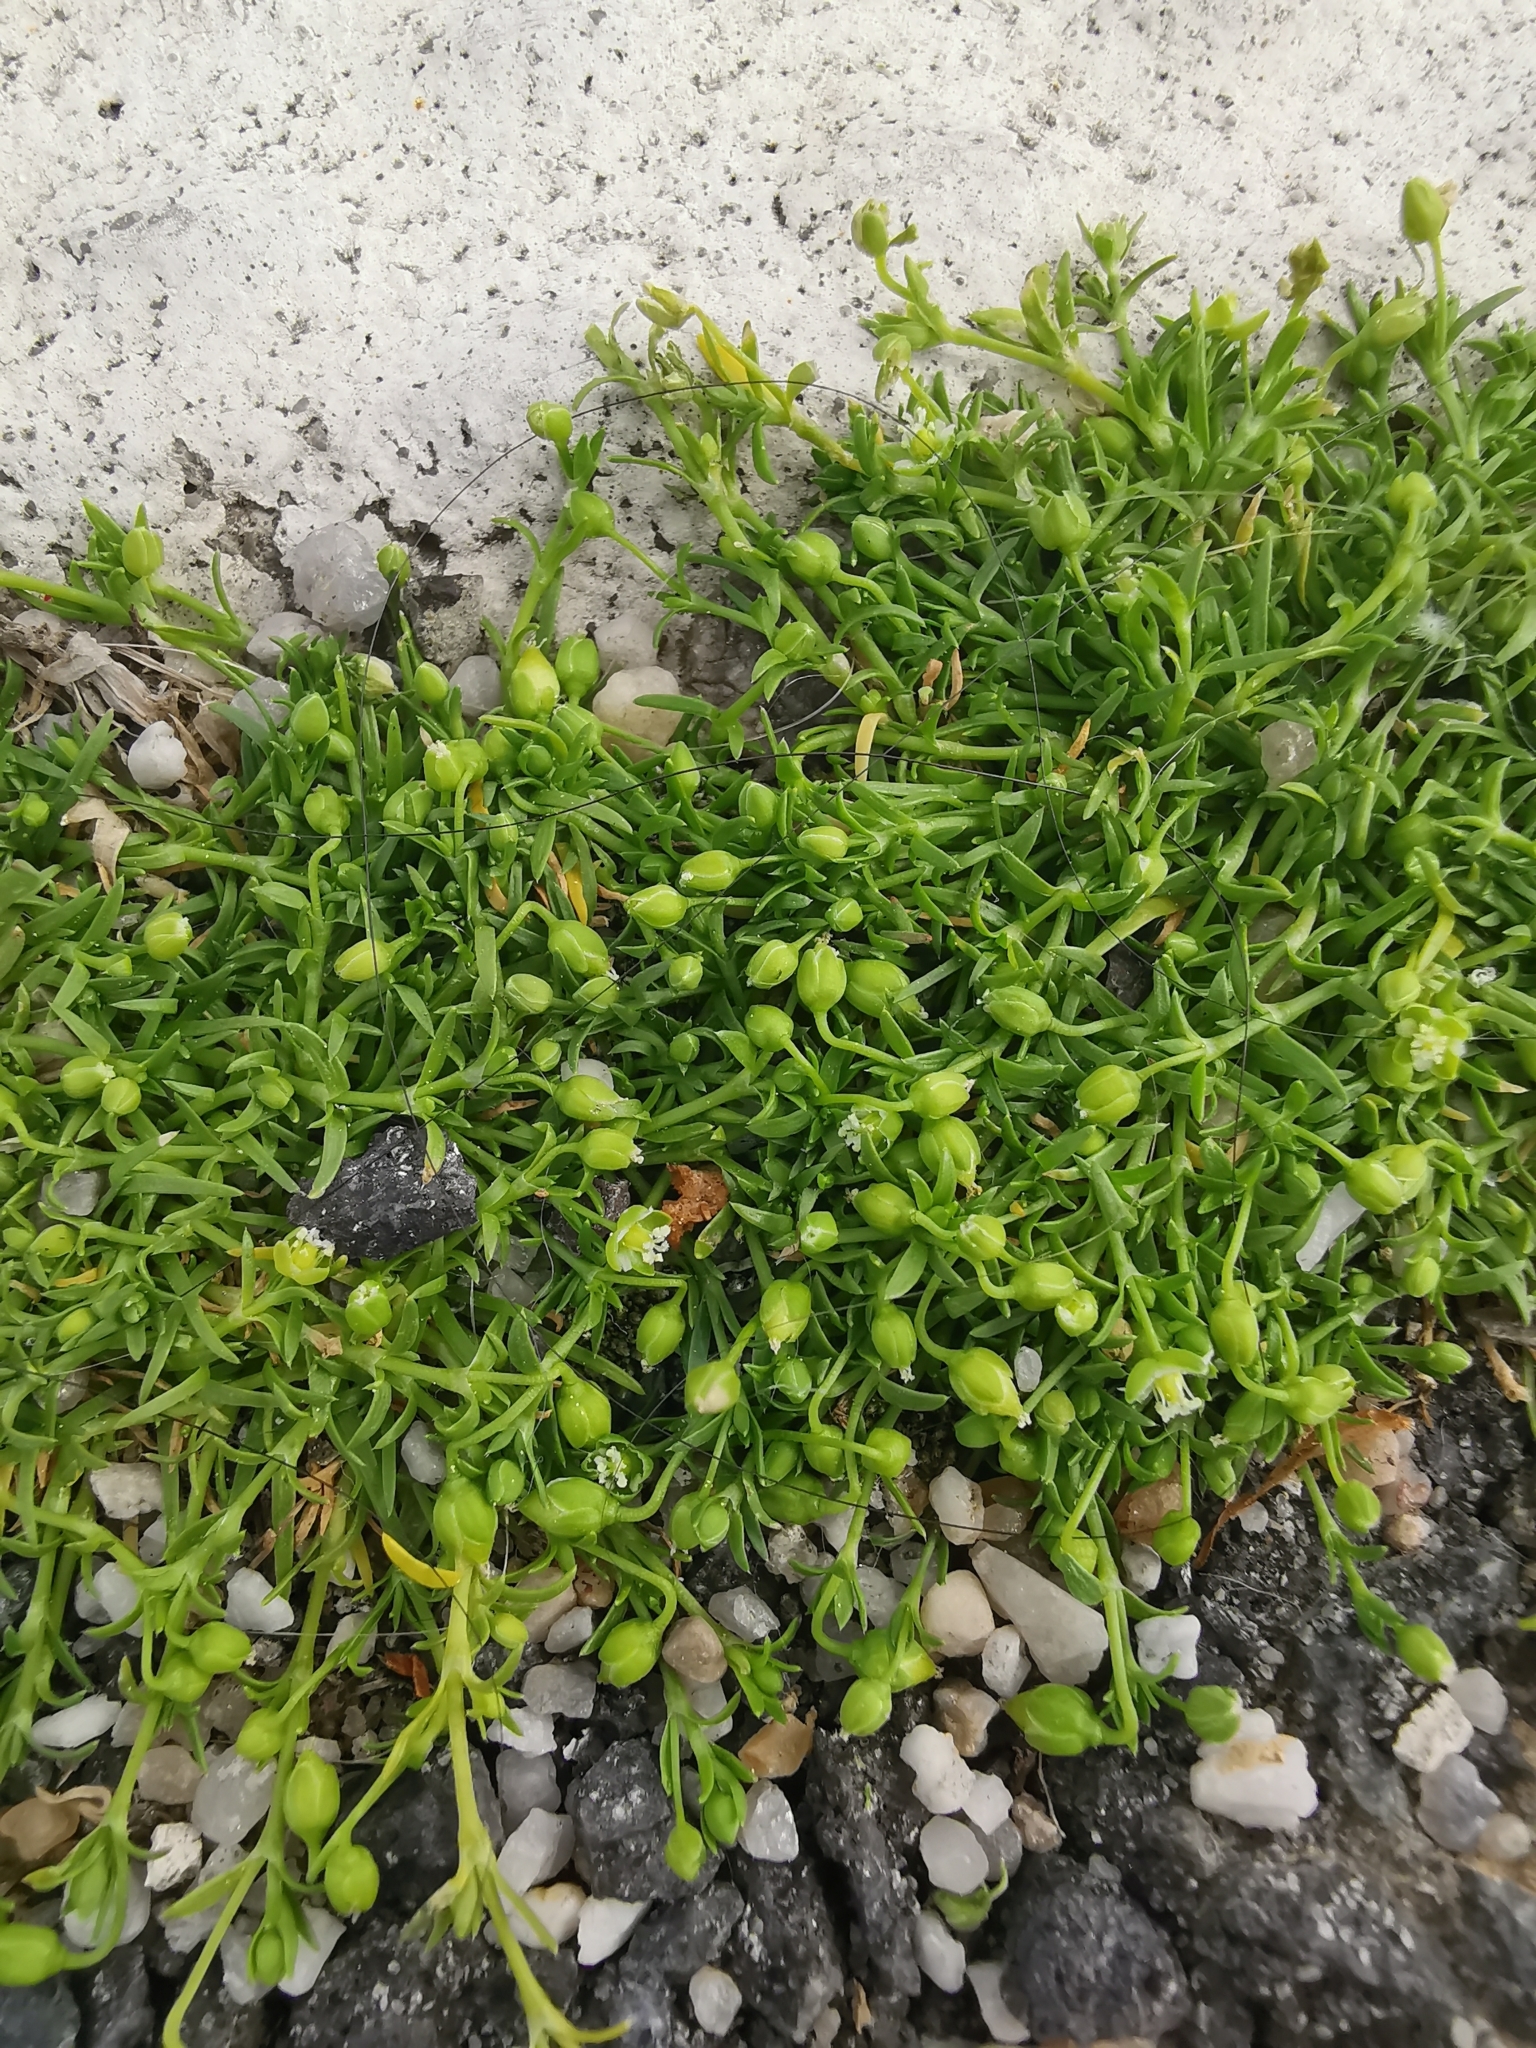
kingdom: Plantae
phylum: Tracheophyta
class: Magnoliopsida
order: Caryophyllales
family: Caryophyllaceae
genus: Sagina
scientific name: Sagina procumbens
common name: Procumbent pearlwort
